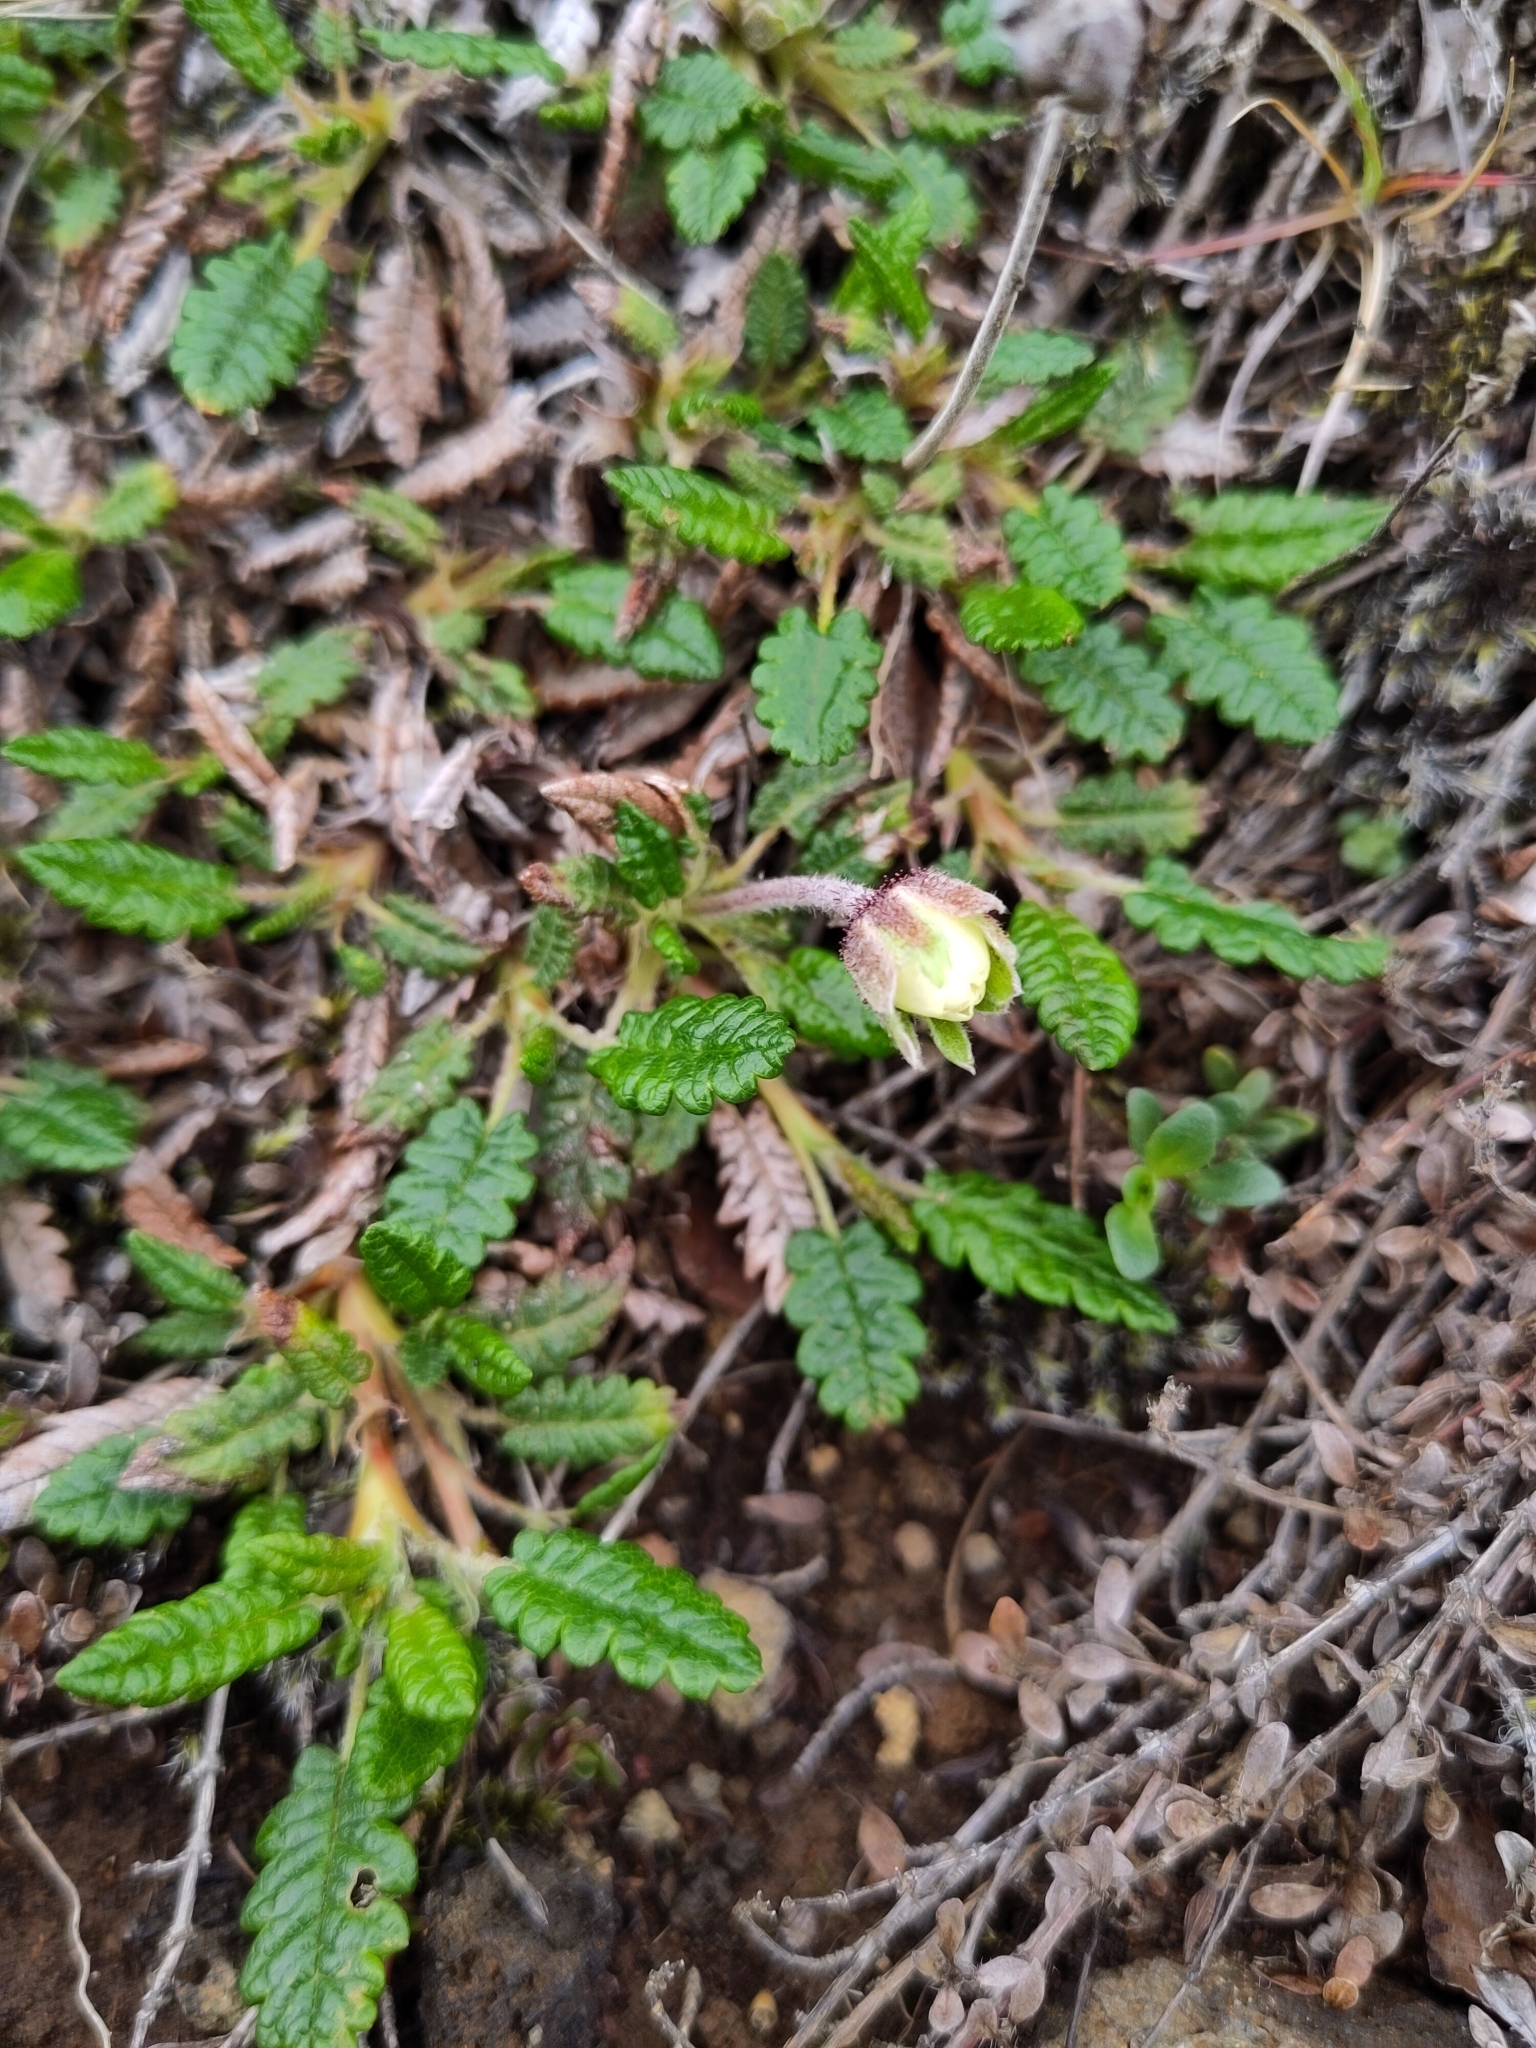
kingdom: Plantae
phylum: Tracheophyta
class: Magnoliopsida
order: Rosales
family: Rosaceae
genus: Dryas
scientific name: Dryas octopetala
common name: Eight-petal mountain-avens
